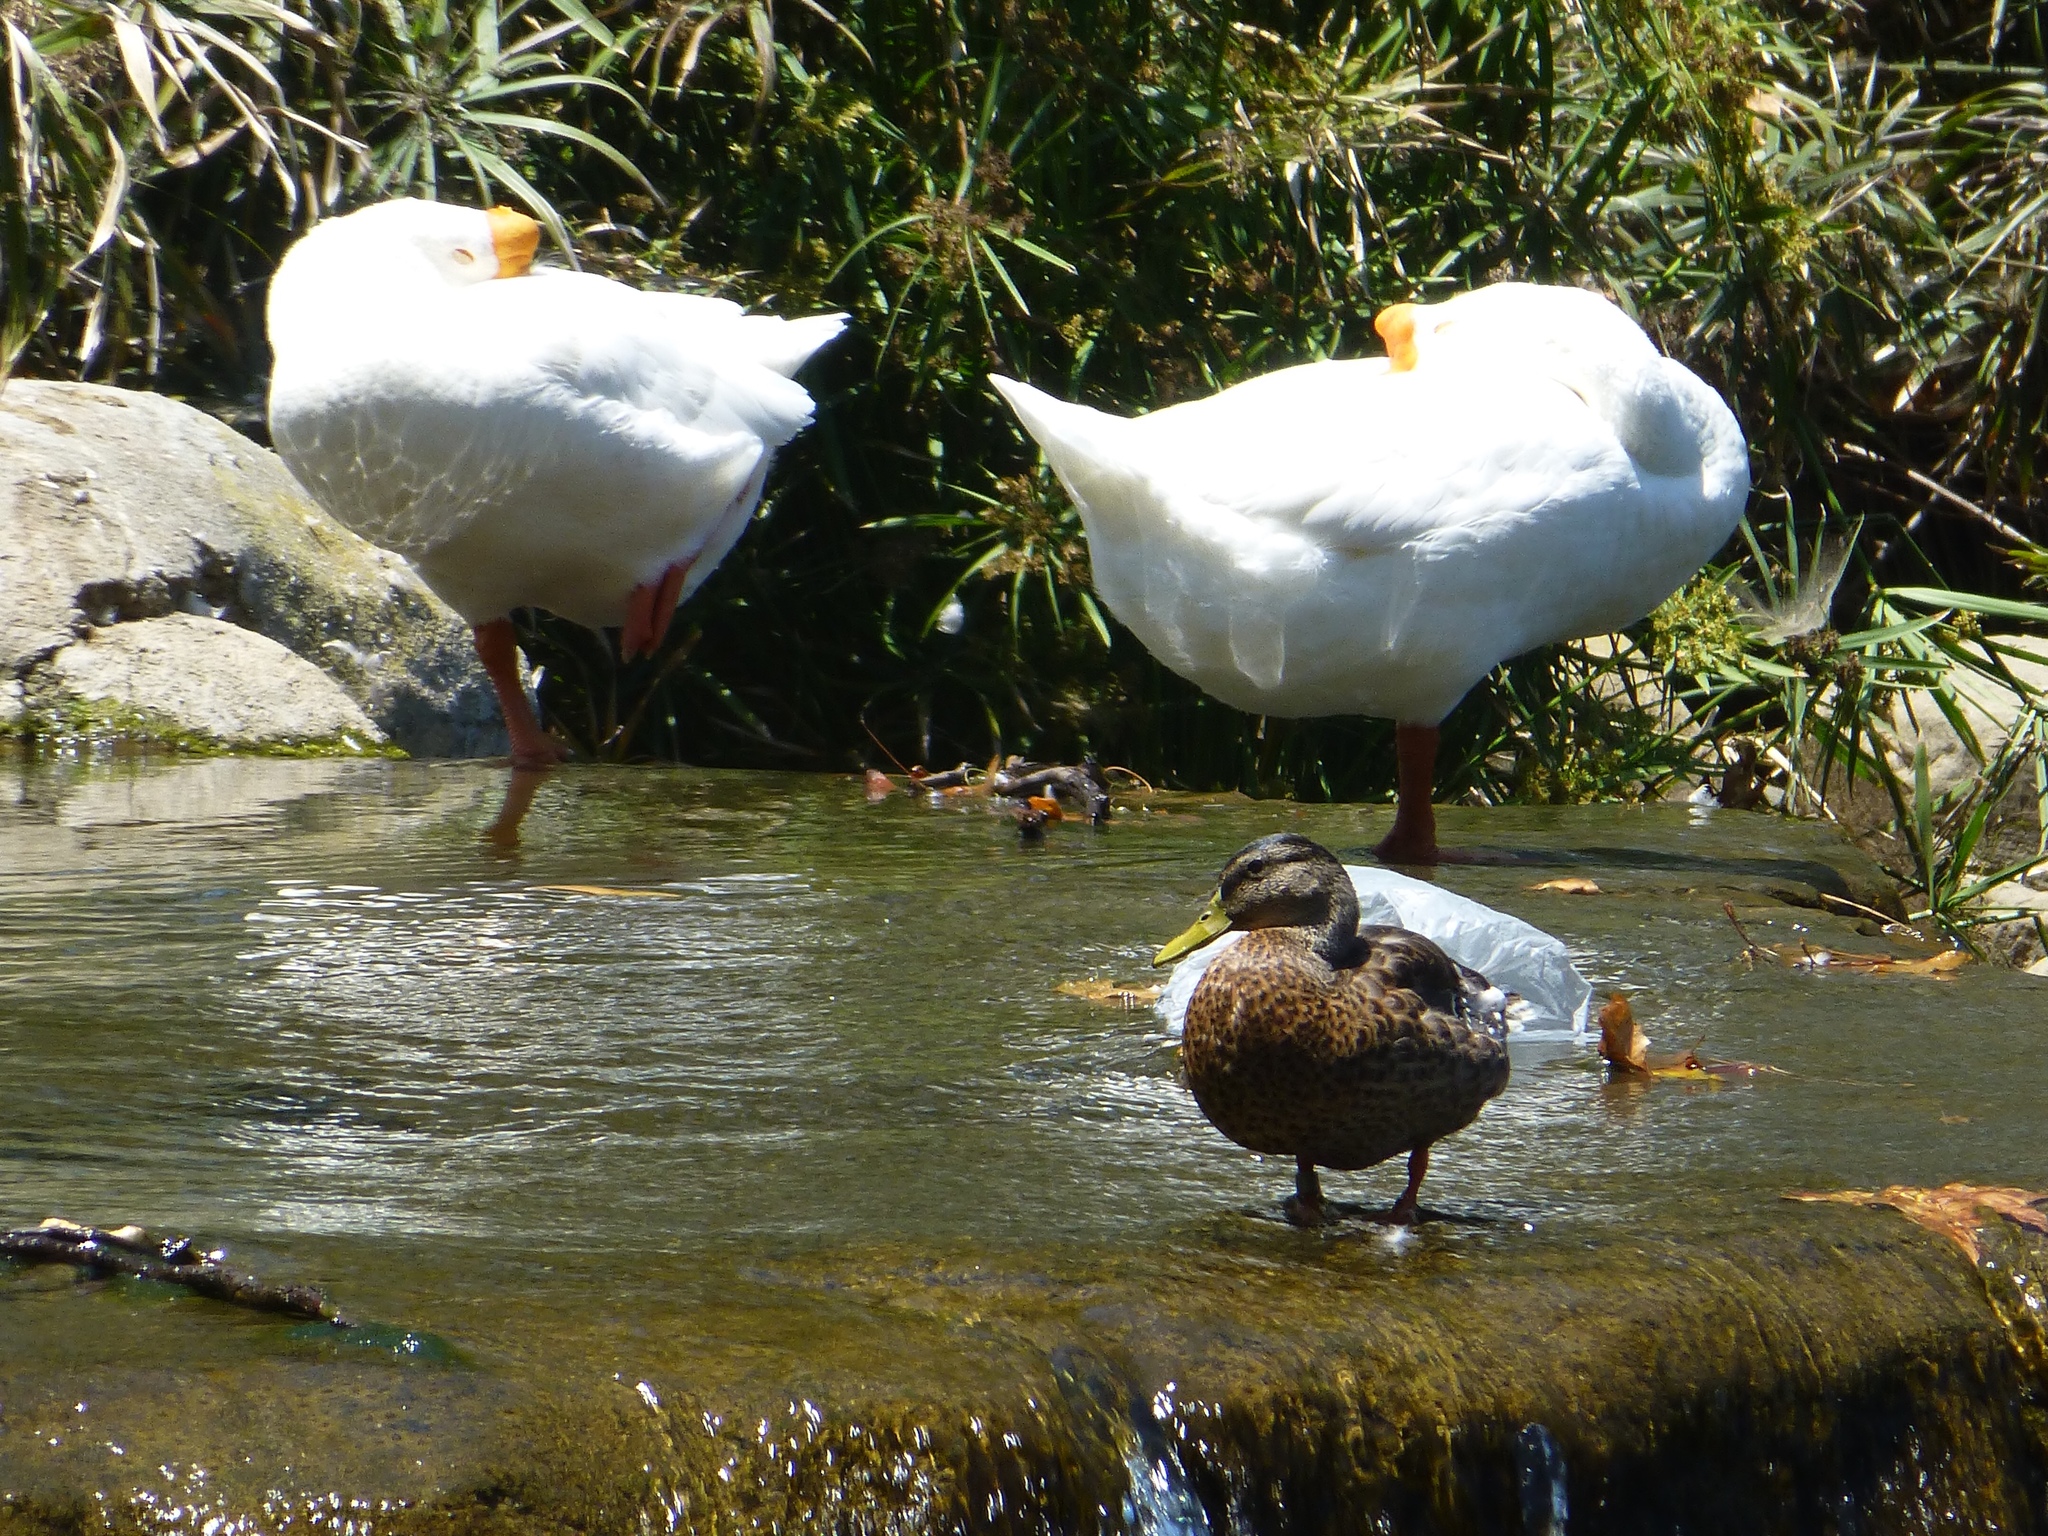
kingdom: Animalia
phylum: Chordata
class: Aves
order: Anseriformes
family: Anatidae
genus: Anser
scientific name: Anser cygnoides
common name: Swan goose
